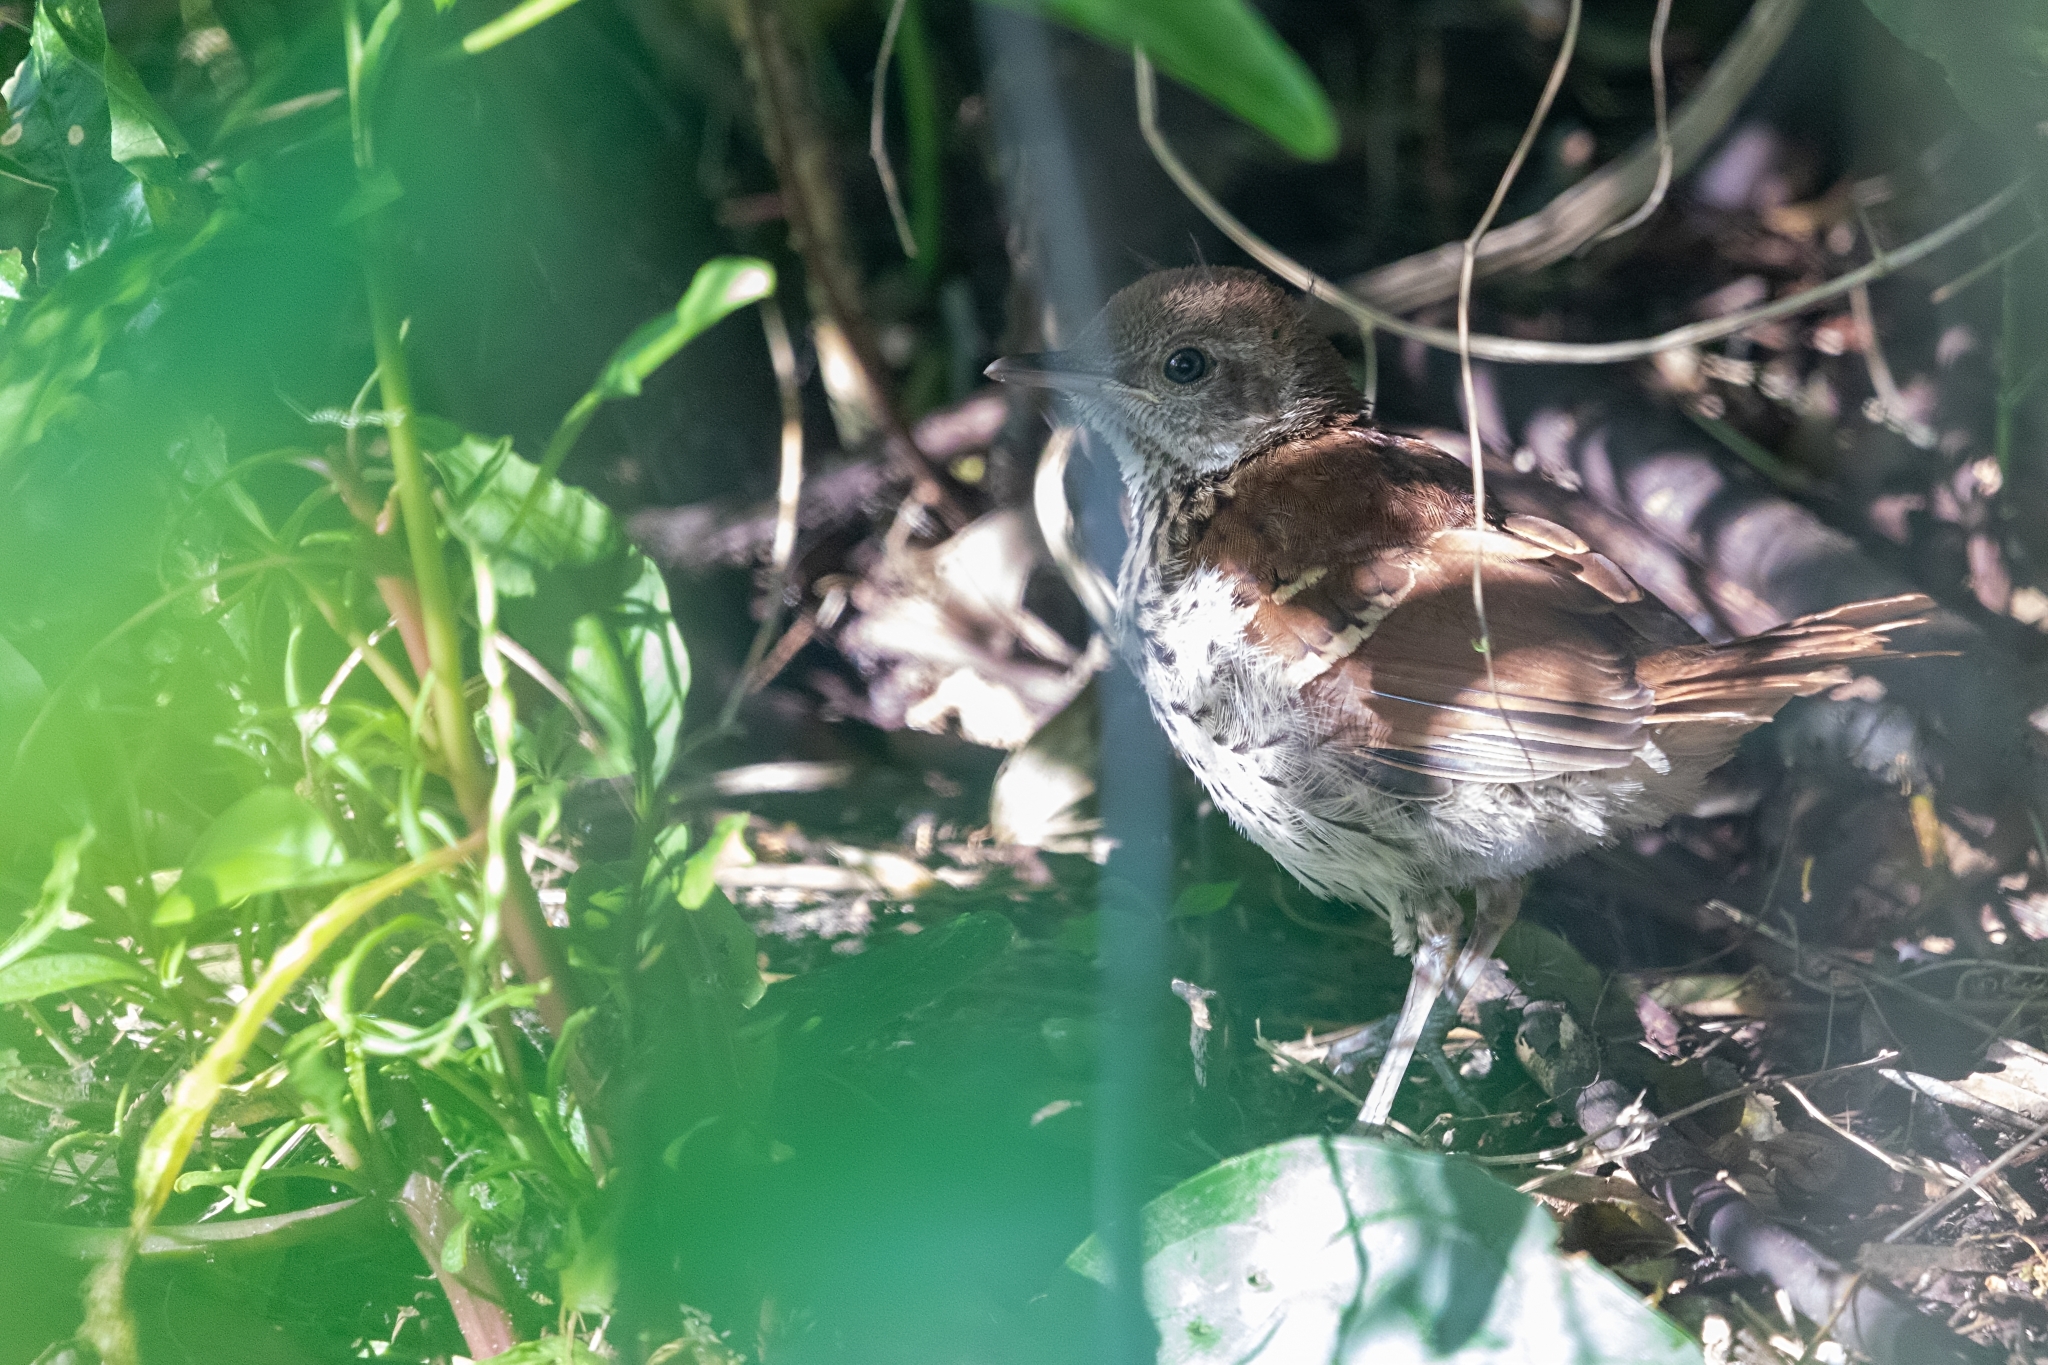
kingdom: Animalia
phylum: Chordata
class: Aves
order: Passeriformes
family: Mimidae
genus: Toxostoma
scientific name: Toxostoma rufum
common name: Brown thrasher
